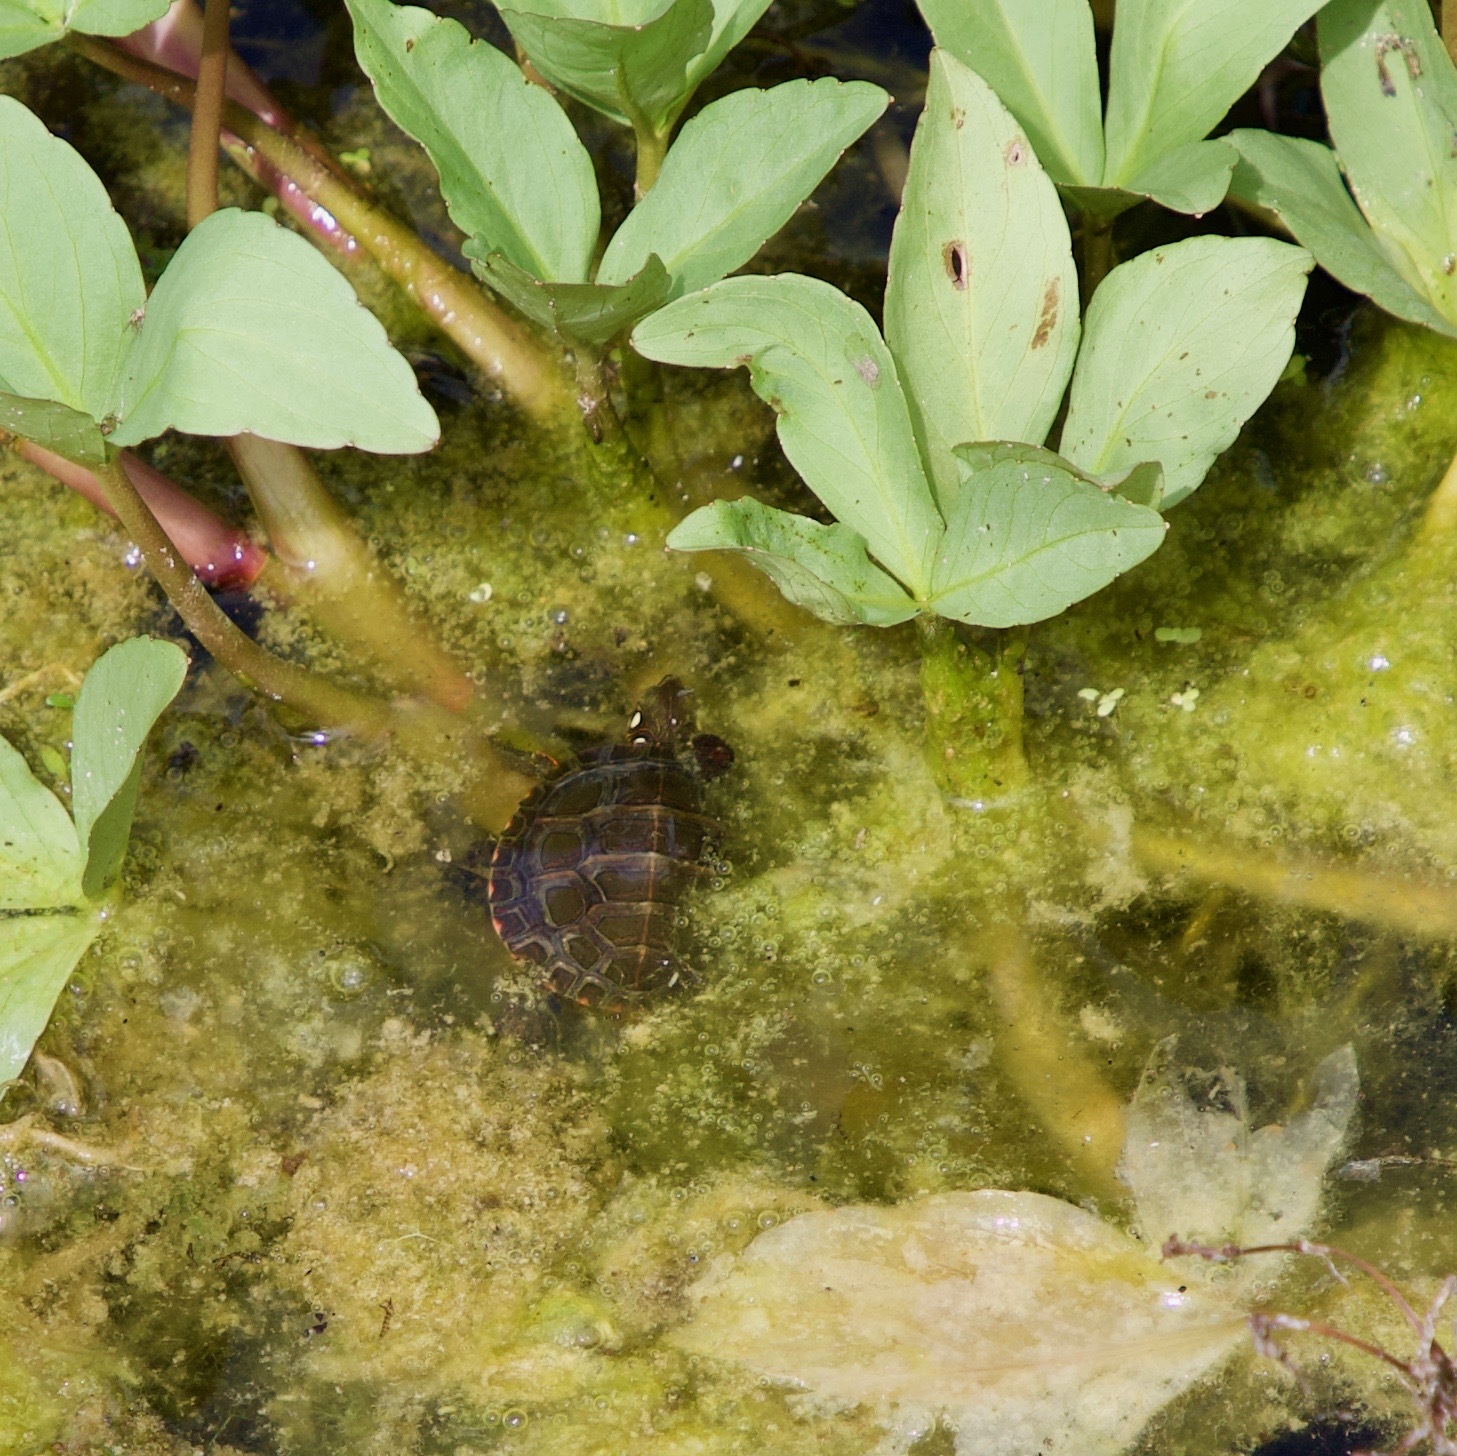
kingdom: Animalia
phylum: Chordata
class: Testudines
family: Emydidae
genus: Chrysemys
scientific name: Chrysemys picta
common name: Painted turtle
